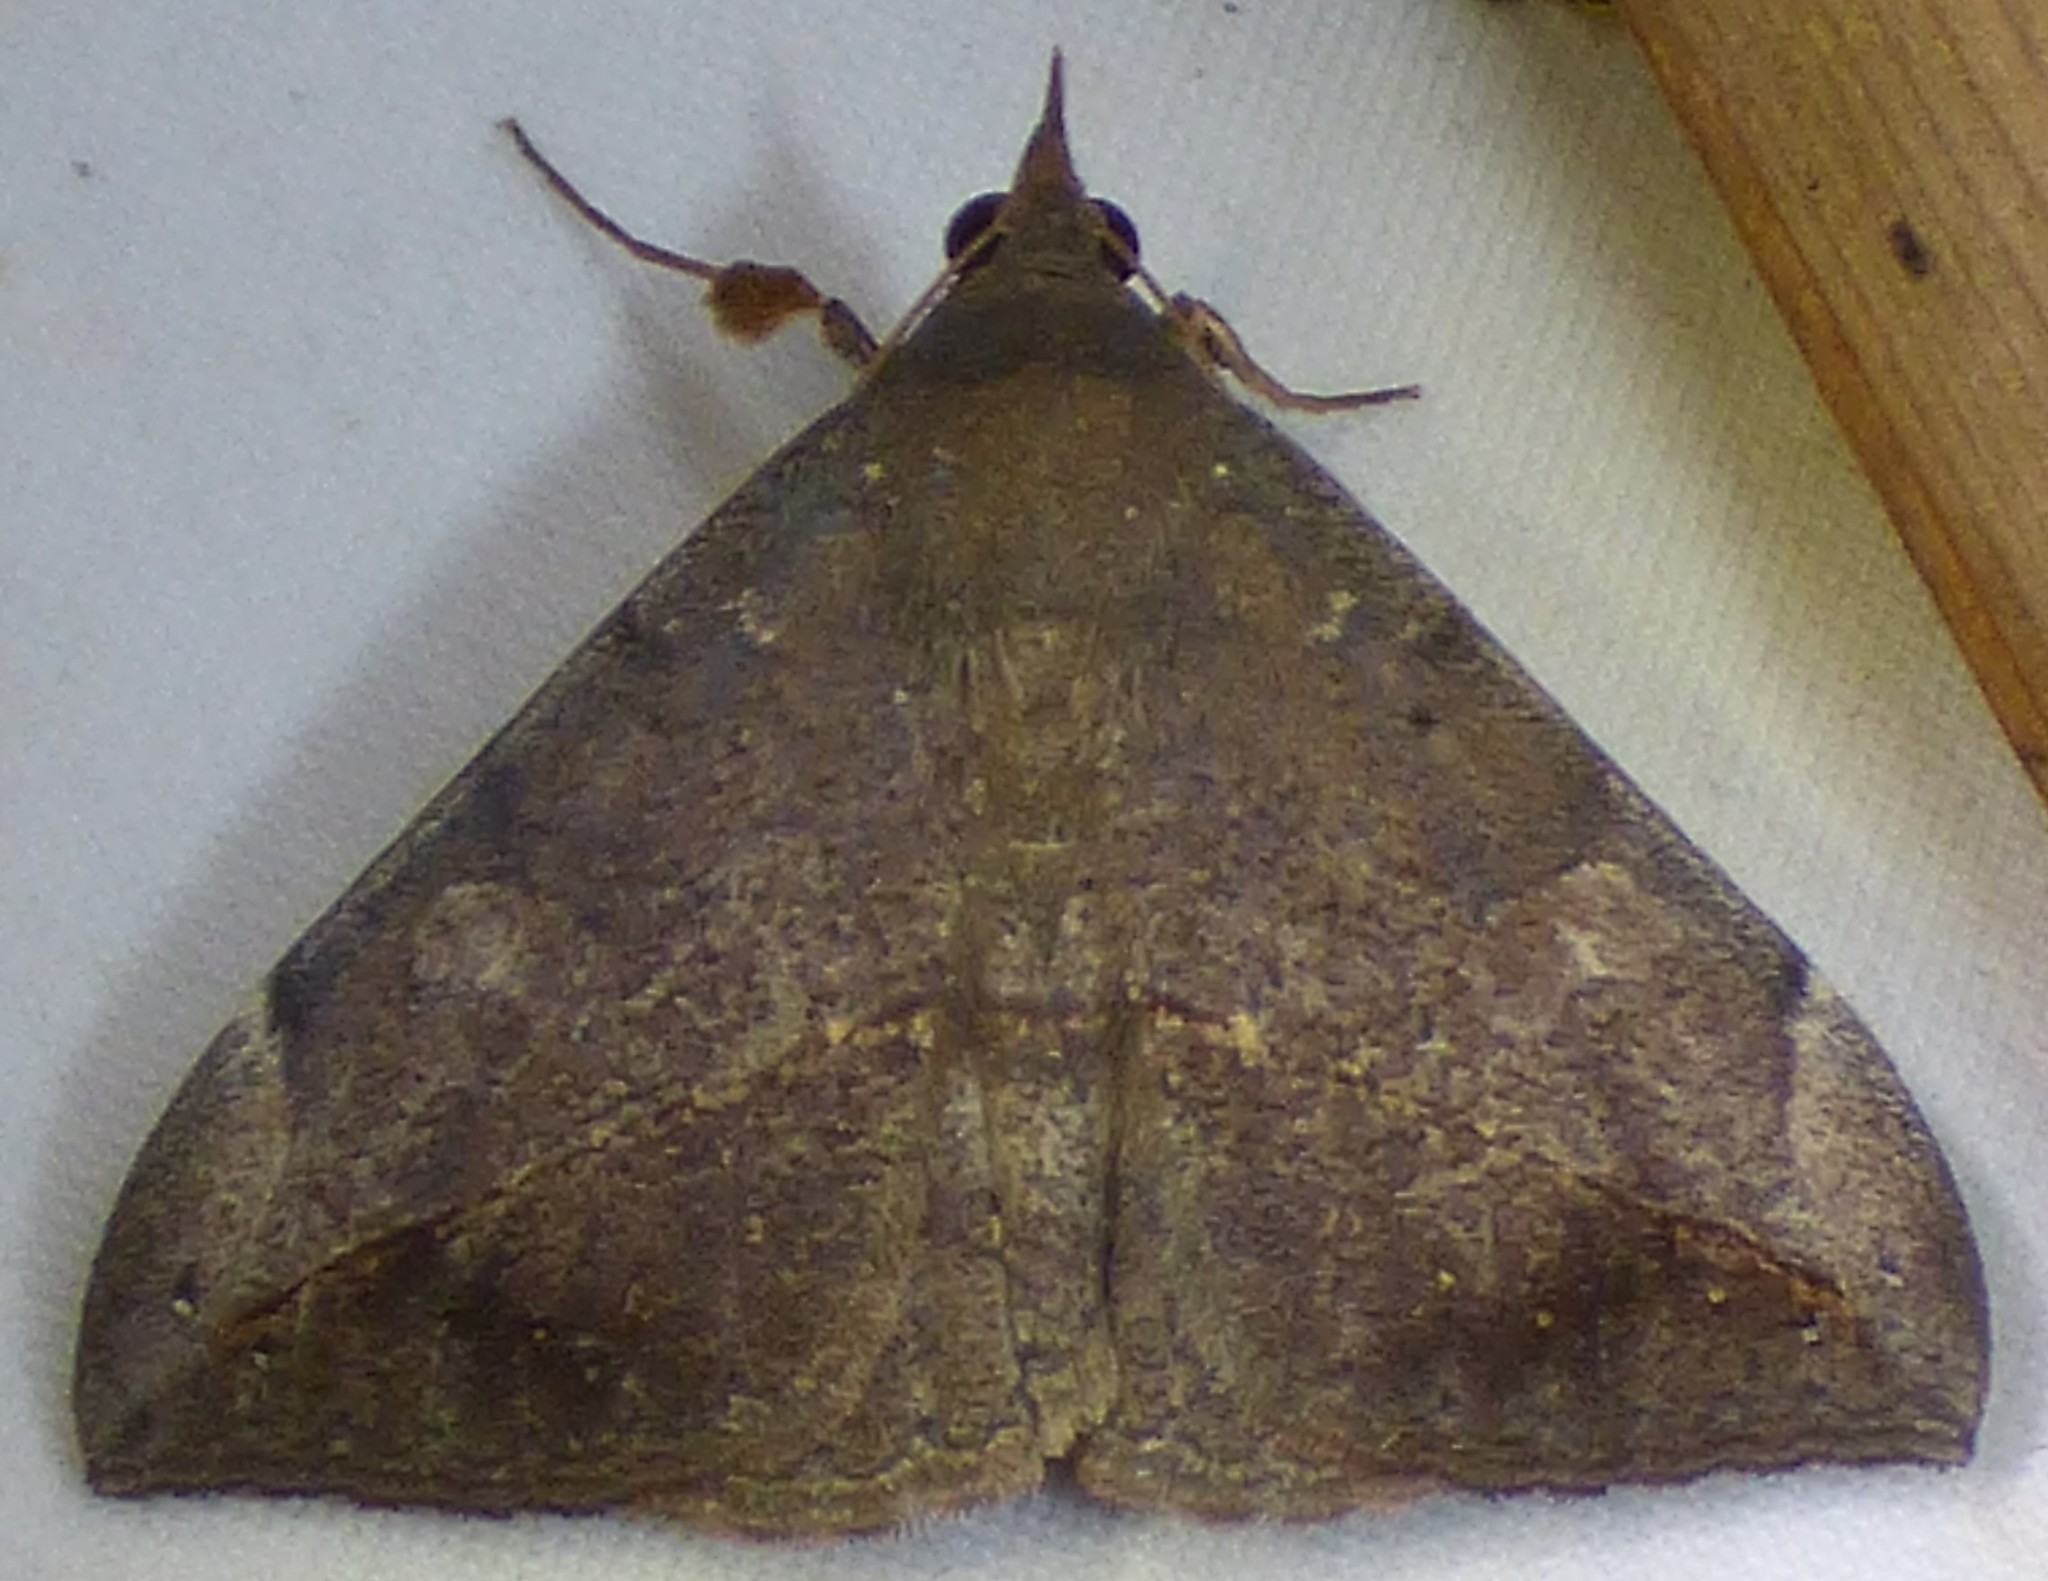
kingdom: Animalia
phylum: Arthropoda
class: Insecta
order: Lepidoptera
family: Erebidae
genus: Anticarsia
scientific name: Anticarsia gemmatalis
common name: Cutworm moth
